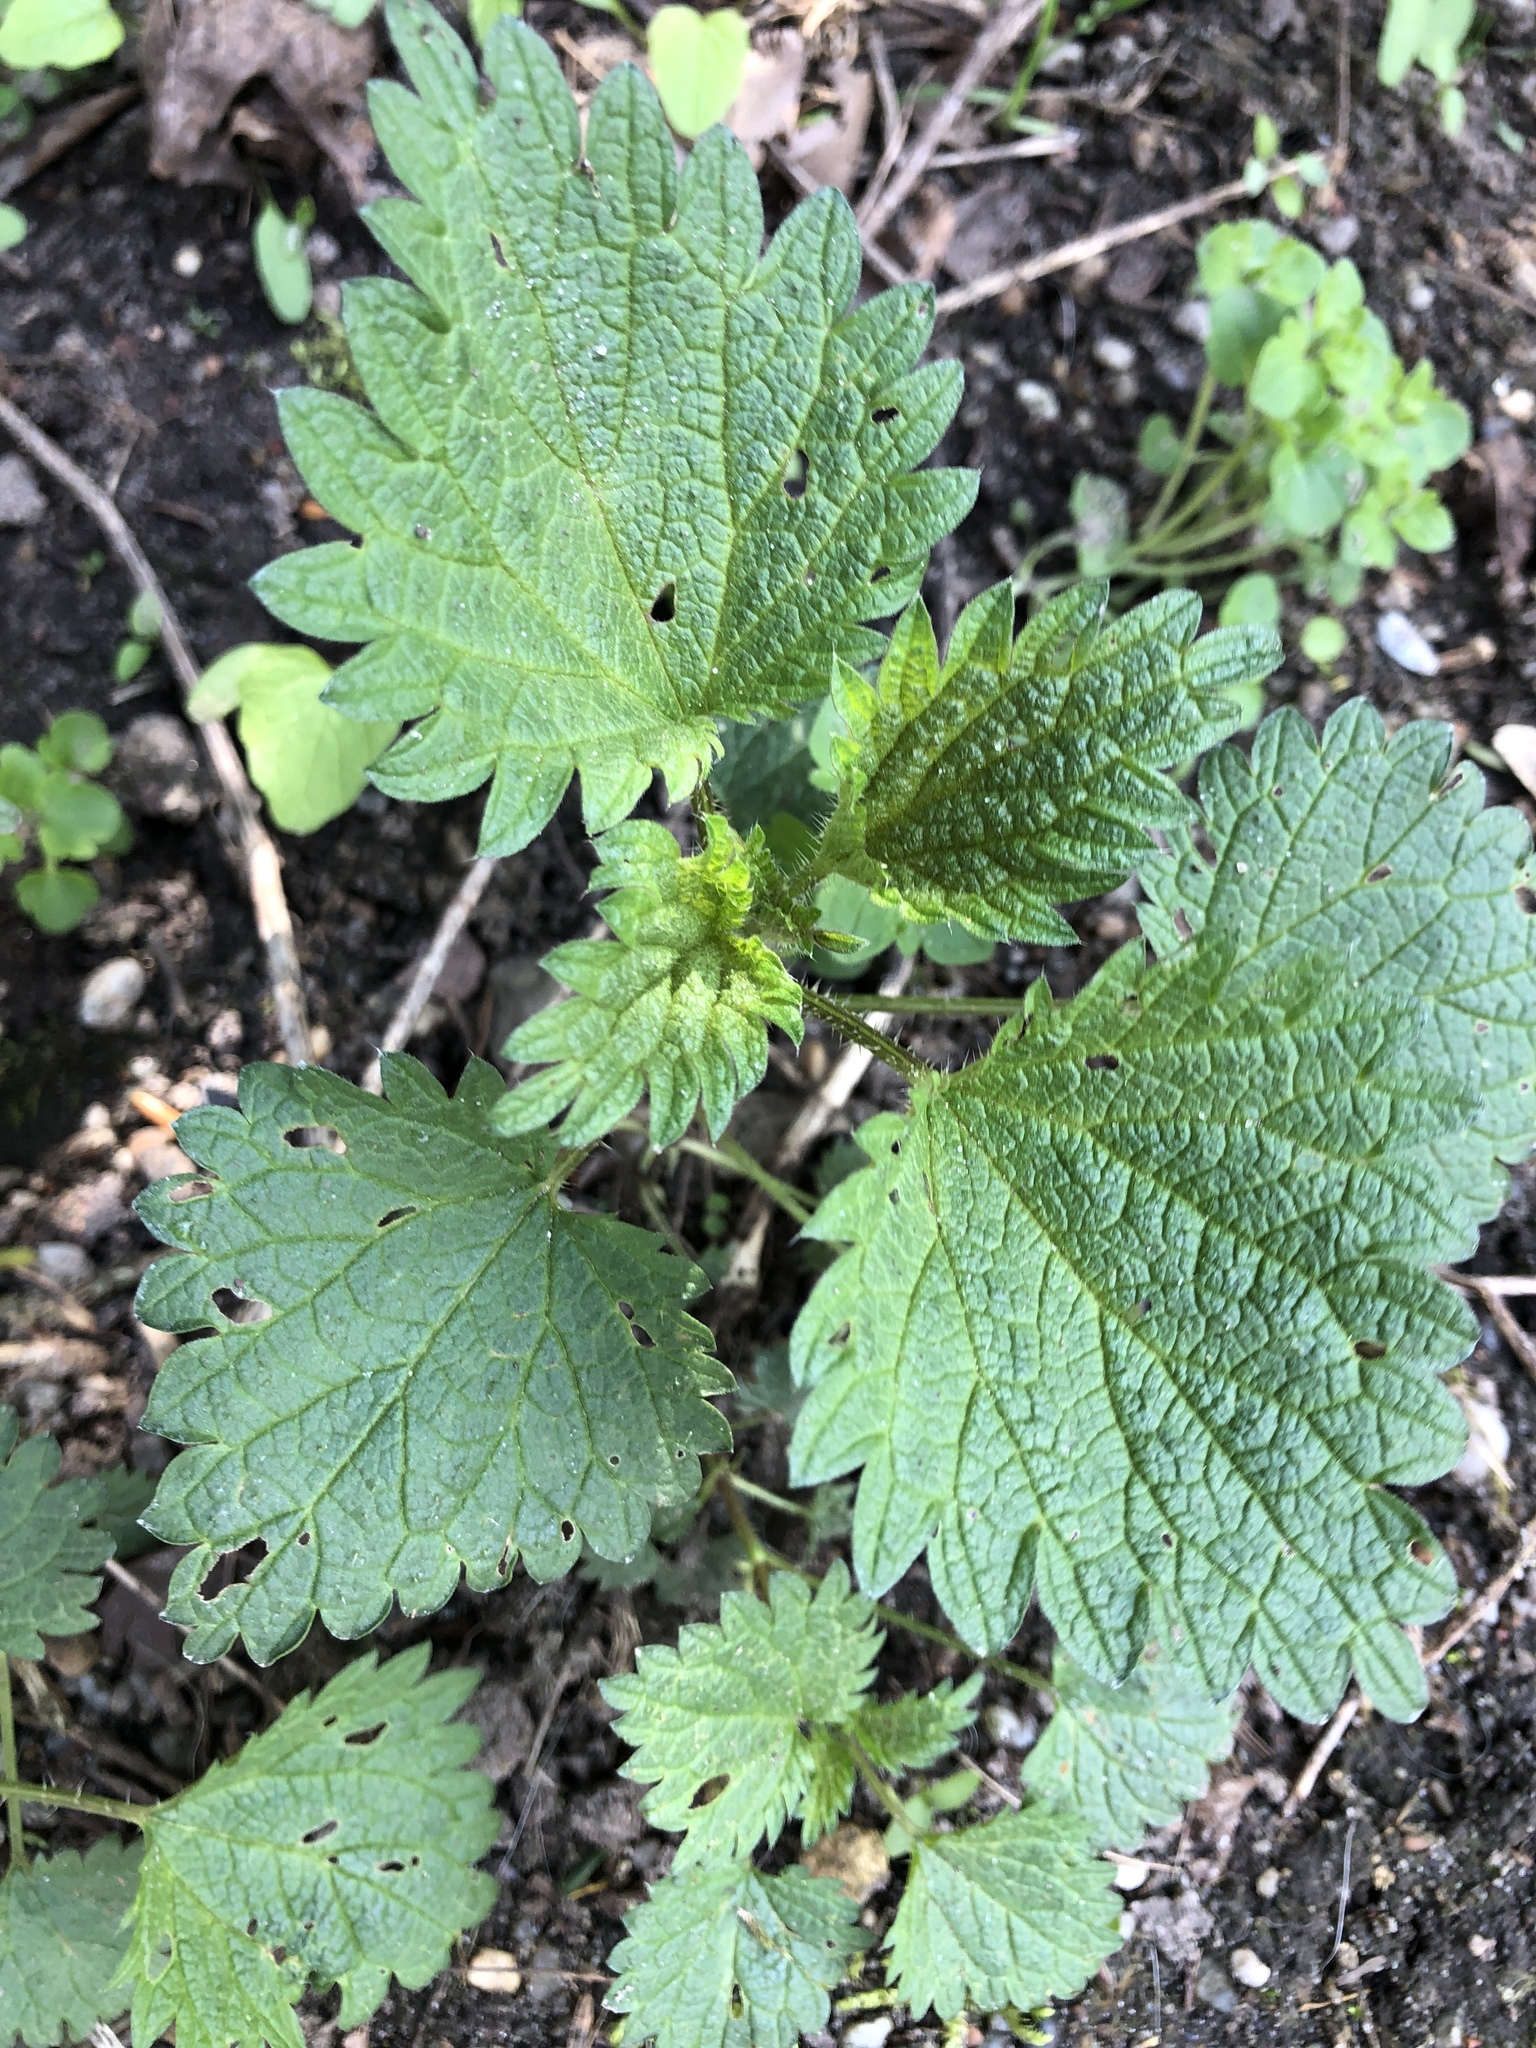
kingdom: Plantae
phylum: Tracheophyta
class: Magnoliopsida
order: Rosales
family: Urticaceae
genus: Urtica
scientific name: Urtica urens
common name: Dwarf nettle
